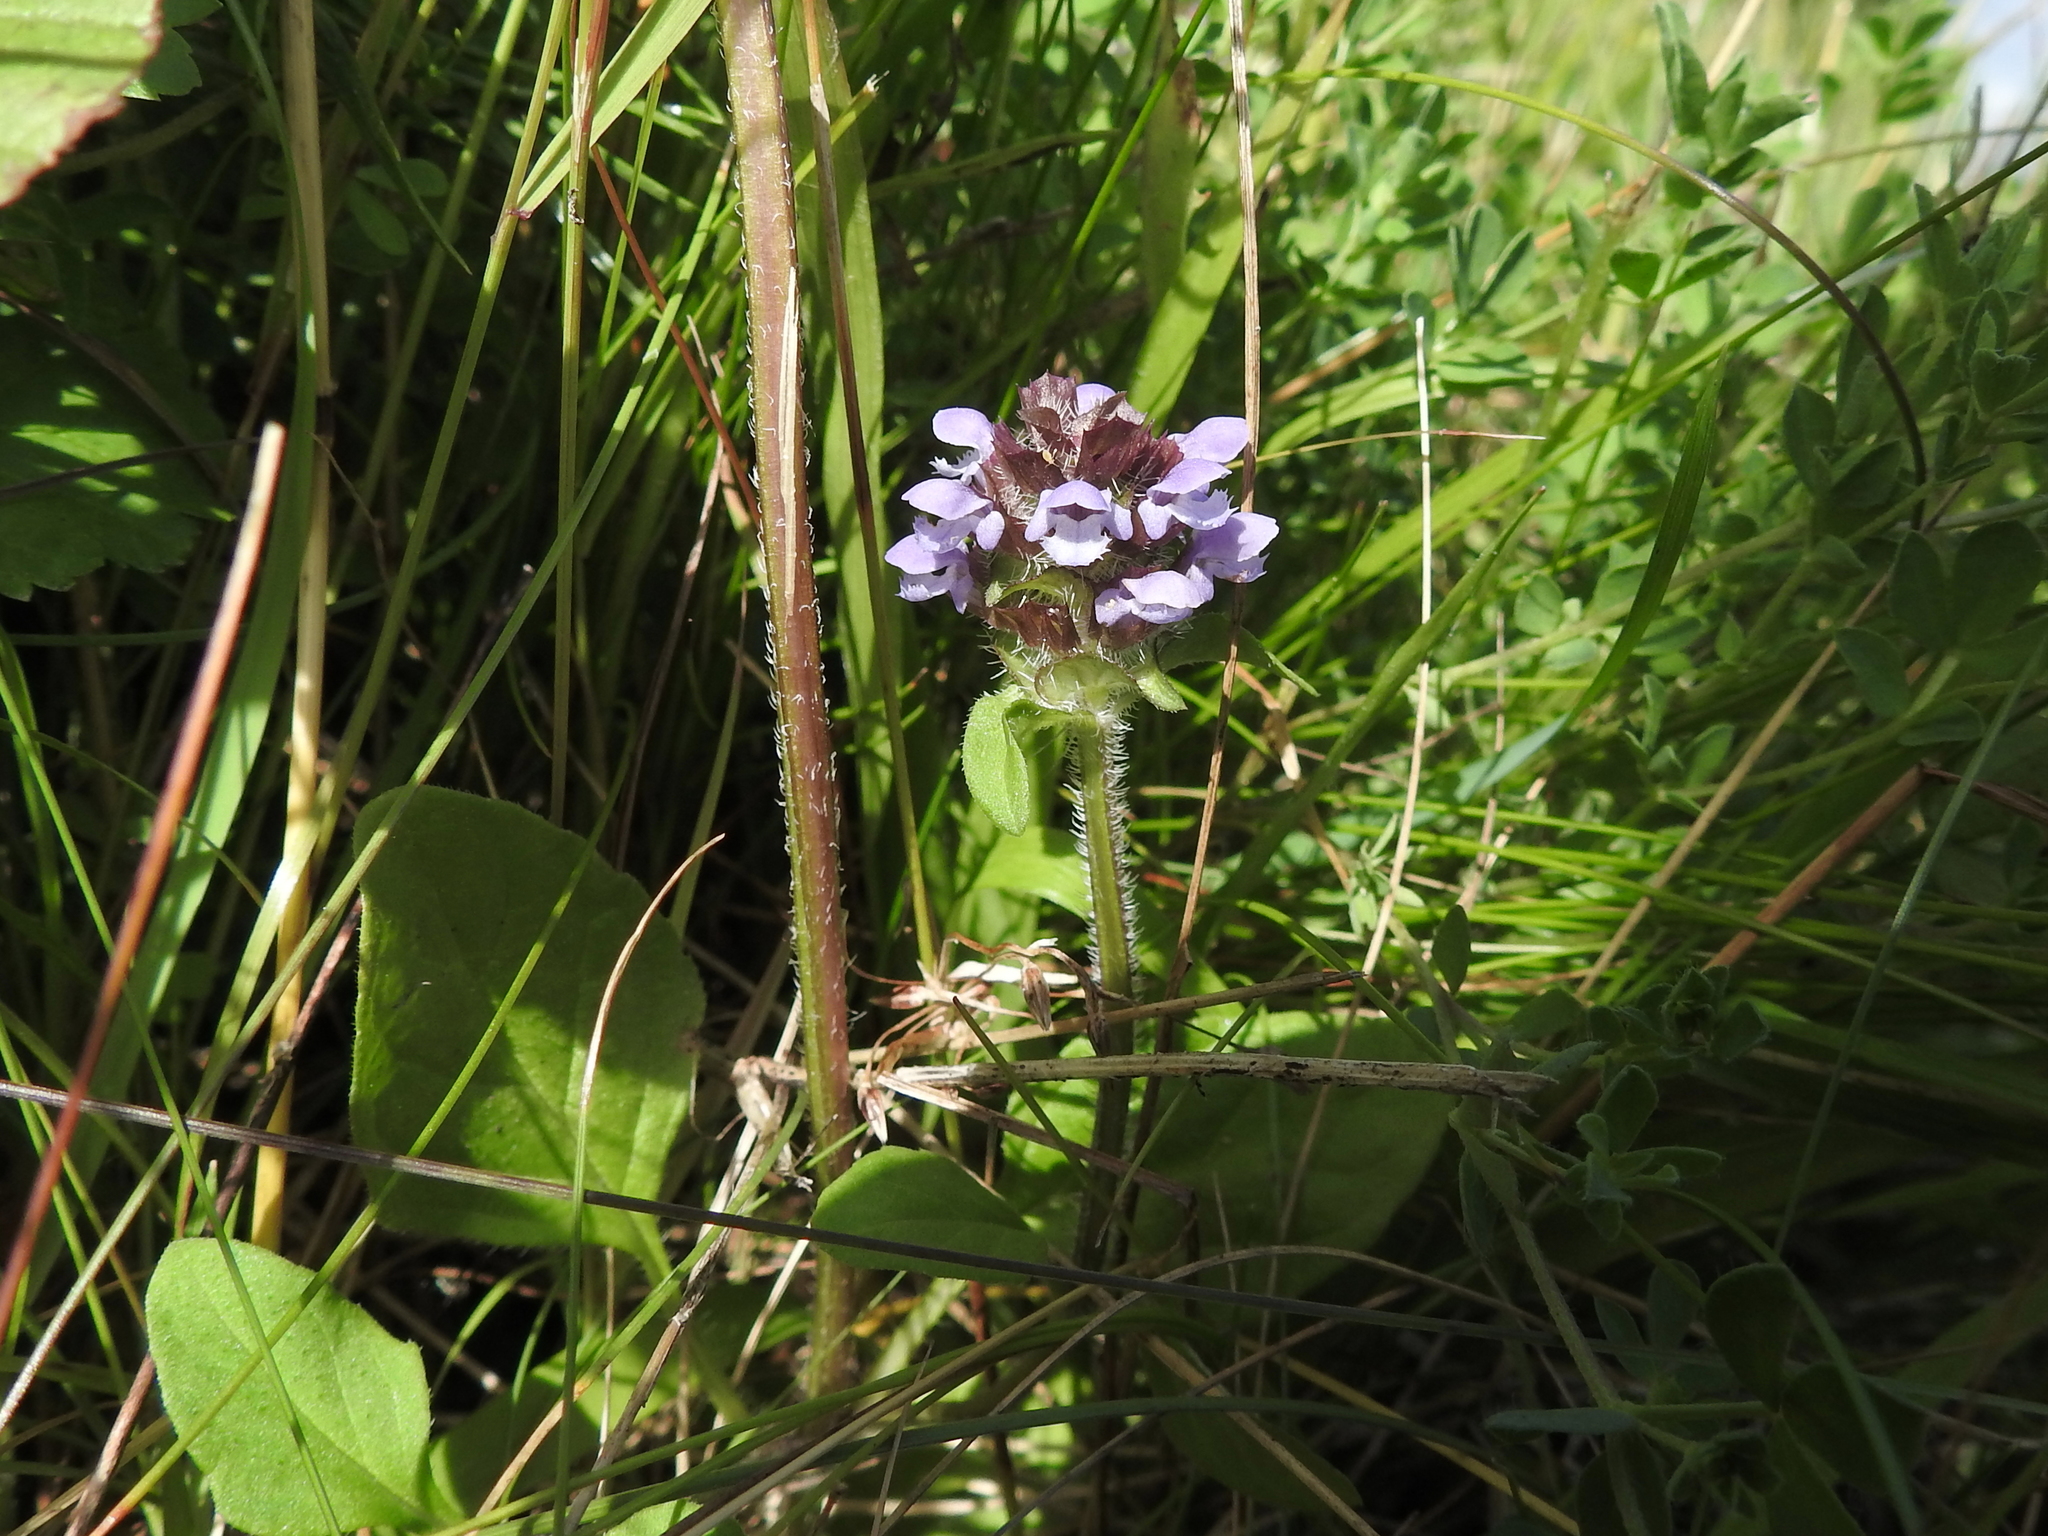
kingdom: Plantae
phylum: Tracheophyta
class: Magnoliopsida
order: Lamiales
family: Lamiaceae
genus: Prunella
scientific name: Prunella vulgaris
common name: Heal-all
